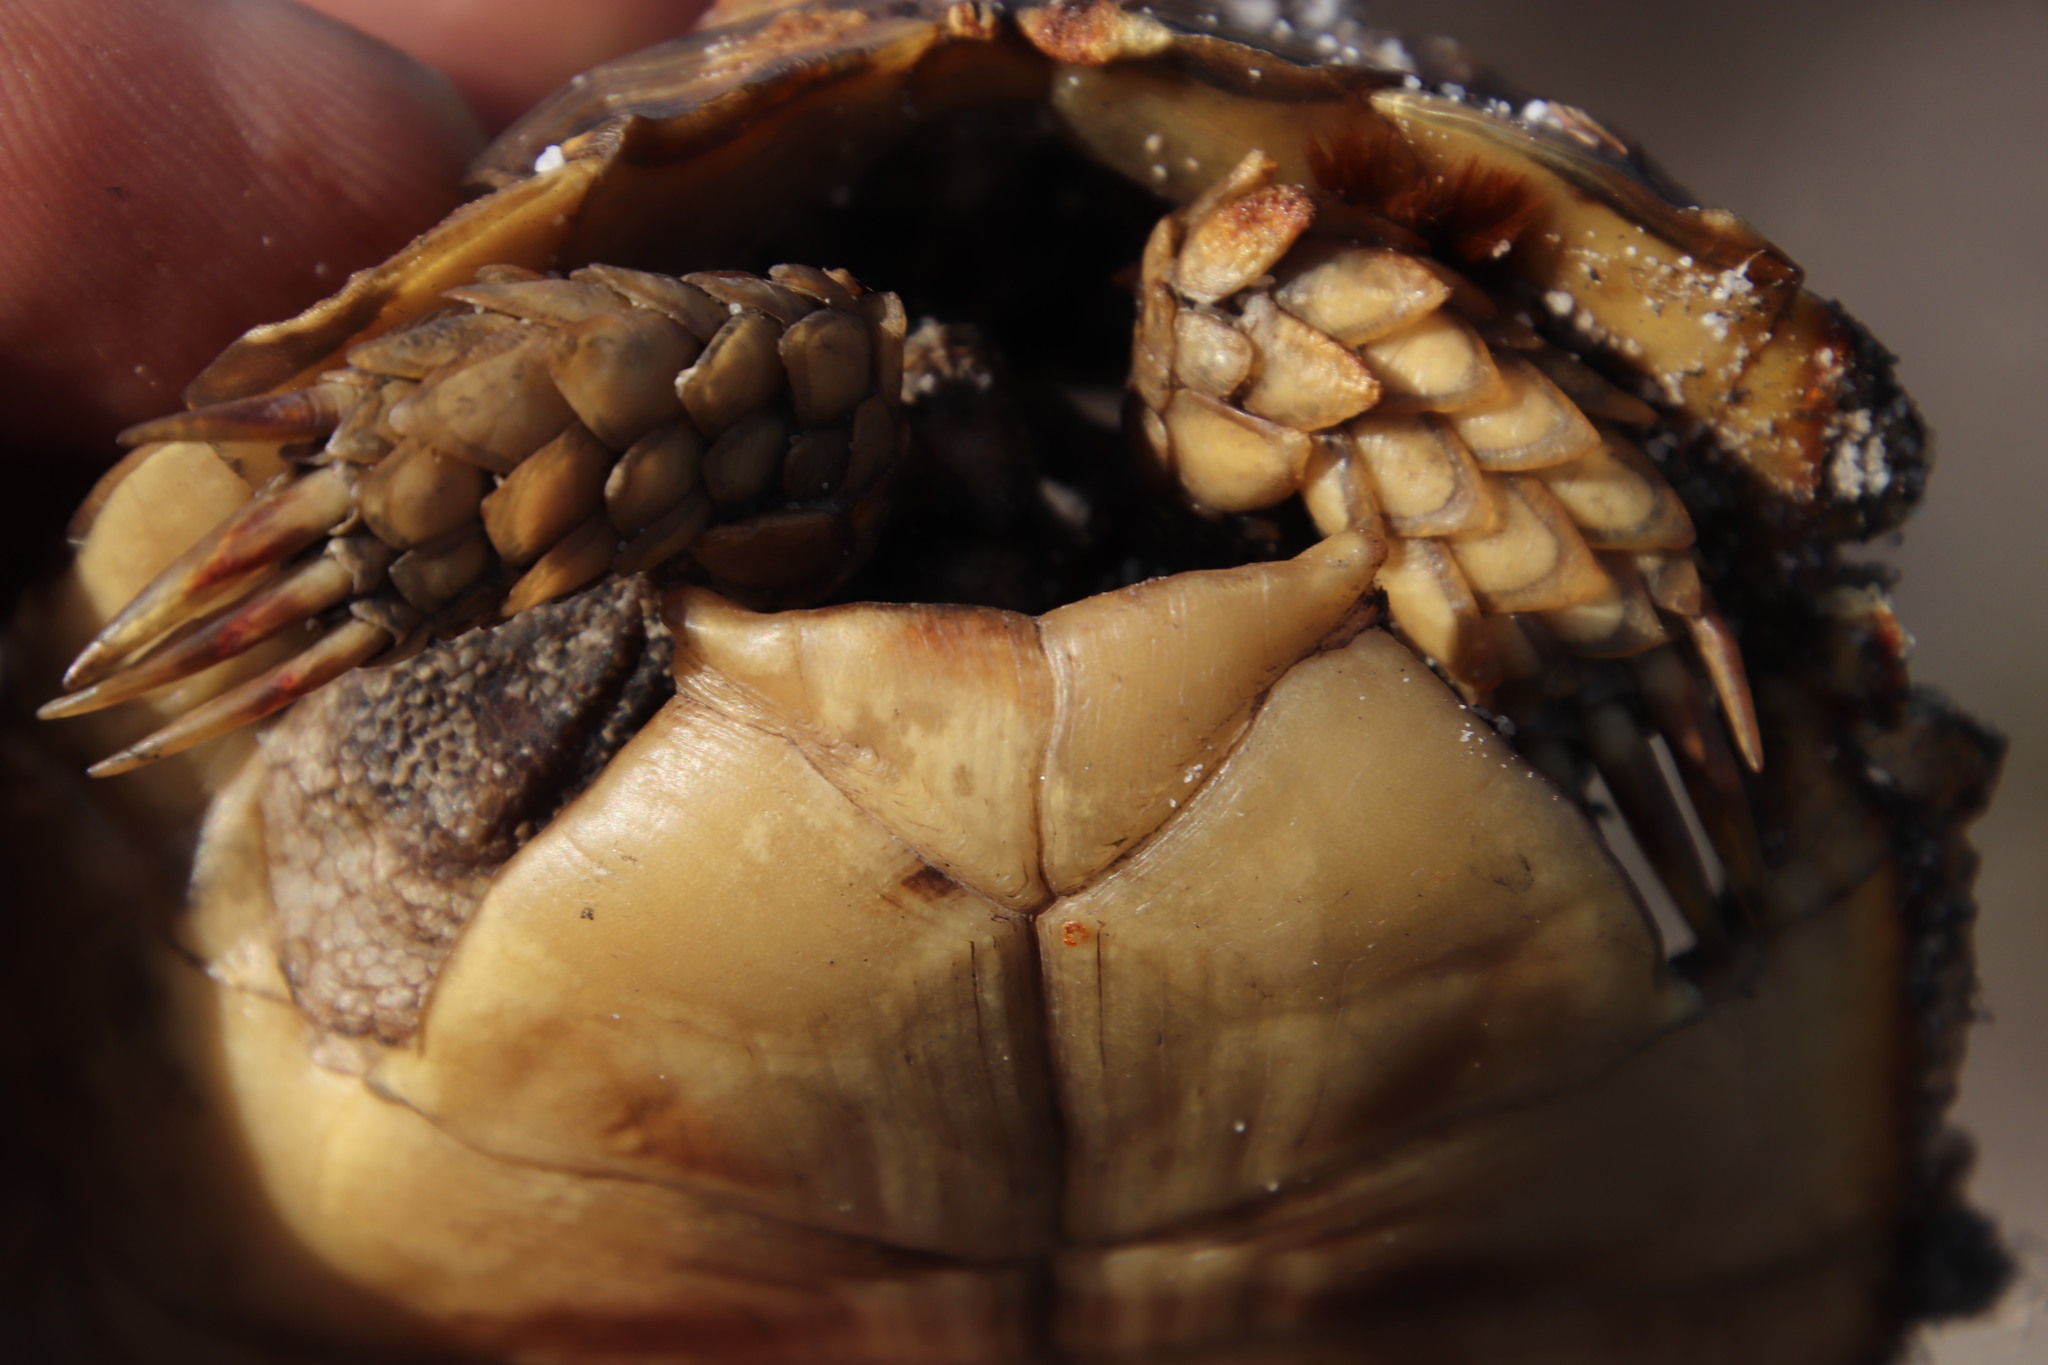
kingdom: Animalia
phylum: Chordata
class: Testudines
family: Testudinidae
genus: Homopus
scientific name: Homopus areolatus
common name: Parrot-beaked tortoise
